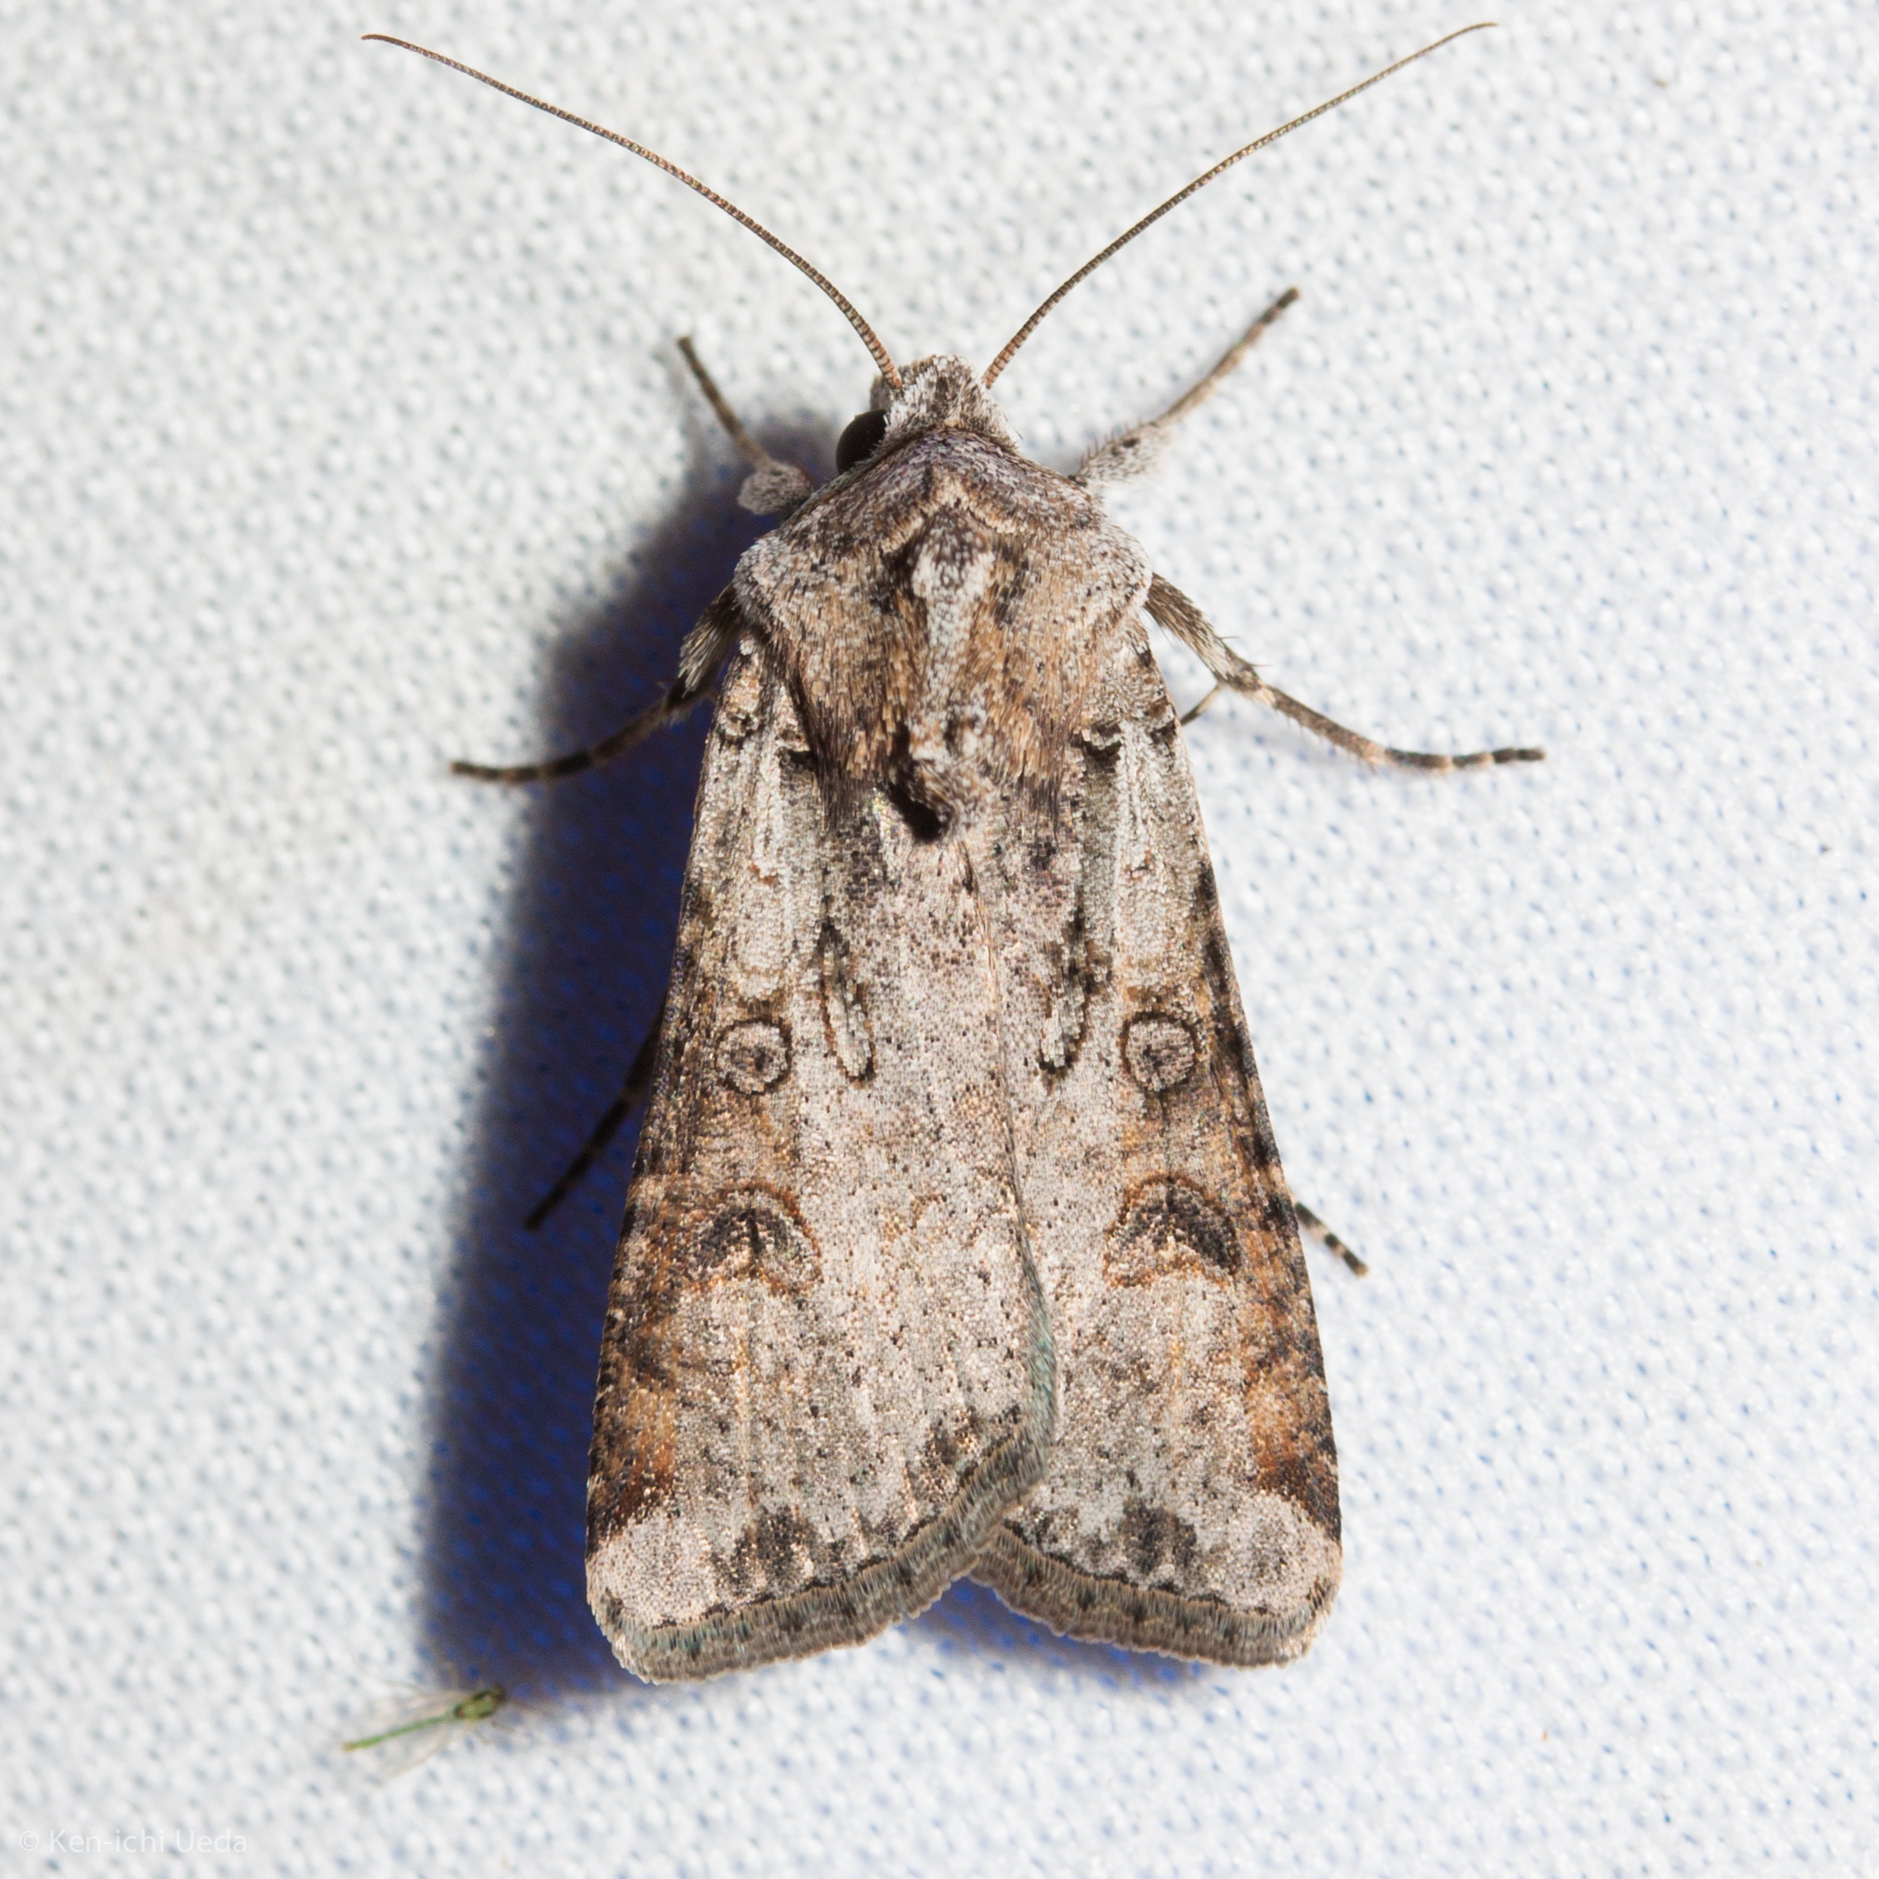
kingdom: Animalia
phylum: Arthropoda
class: Insecta
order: Lepidoptera
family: Noctuidae
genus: Hemieuxoa
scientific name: Hemieuxoa rudens
